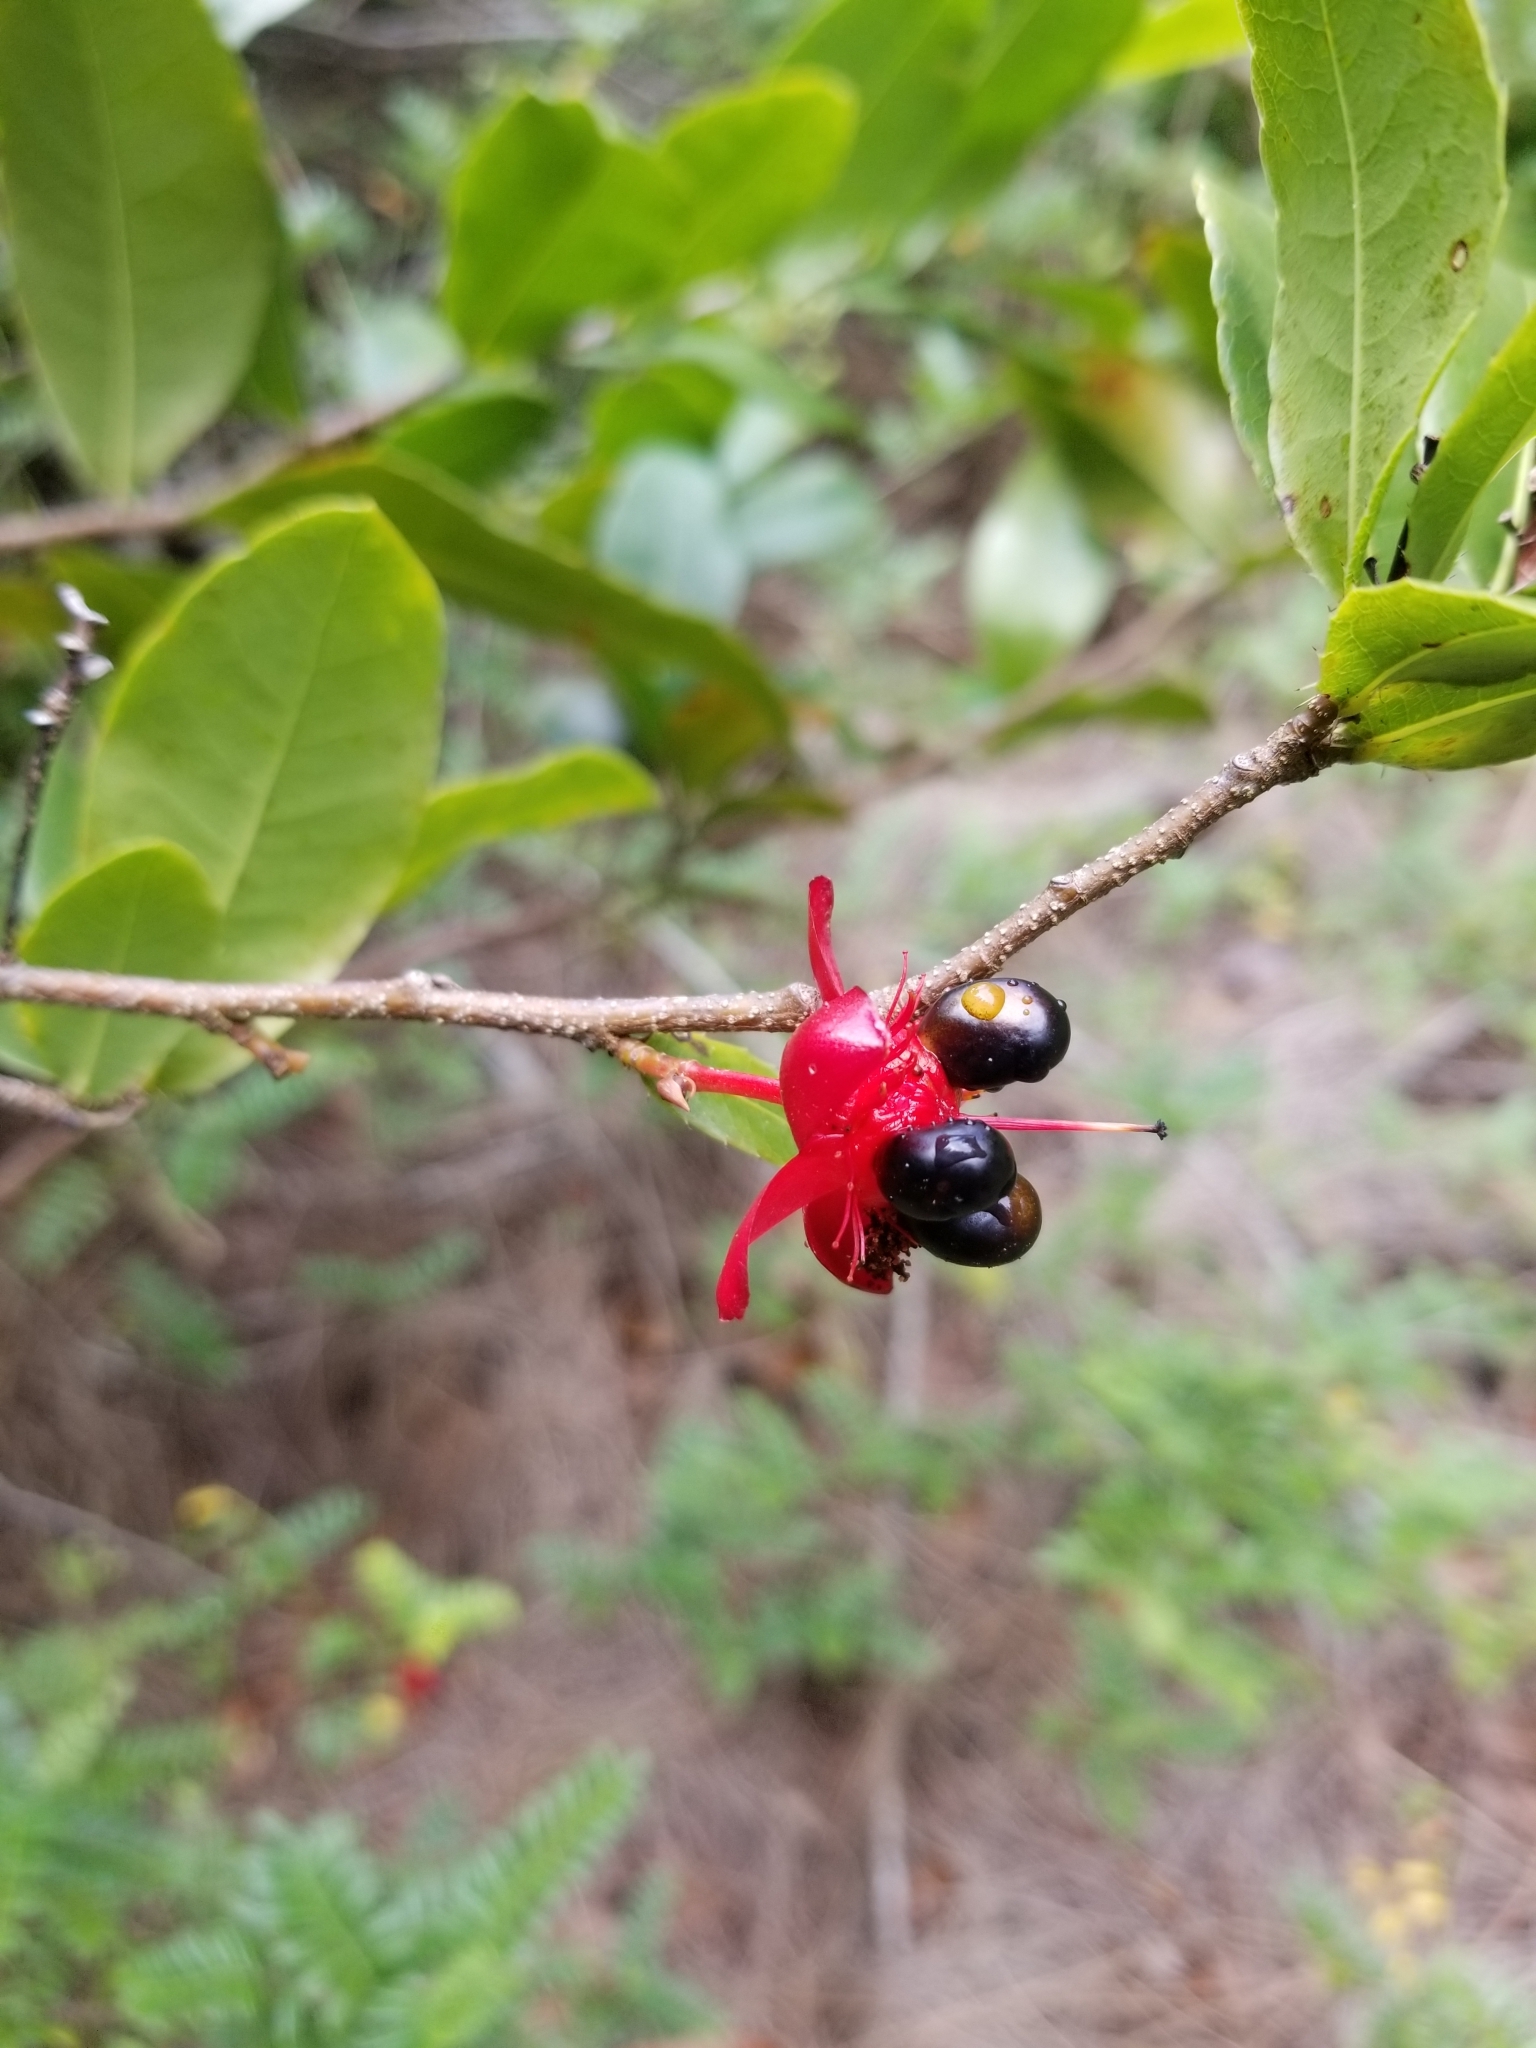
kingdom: Plantae
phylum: Tracheophyta
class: Magnoliopsida
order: Malpighiales
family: Ochnaceae
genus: Ochna
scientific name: Ochna thomasiana
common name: Thomas' bird's-eye bush
